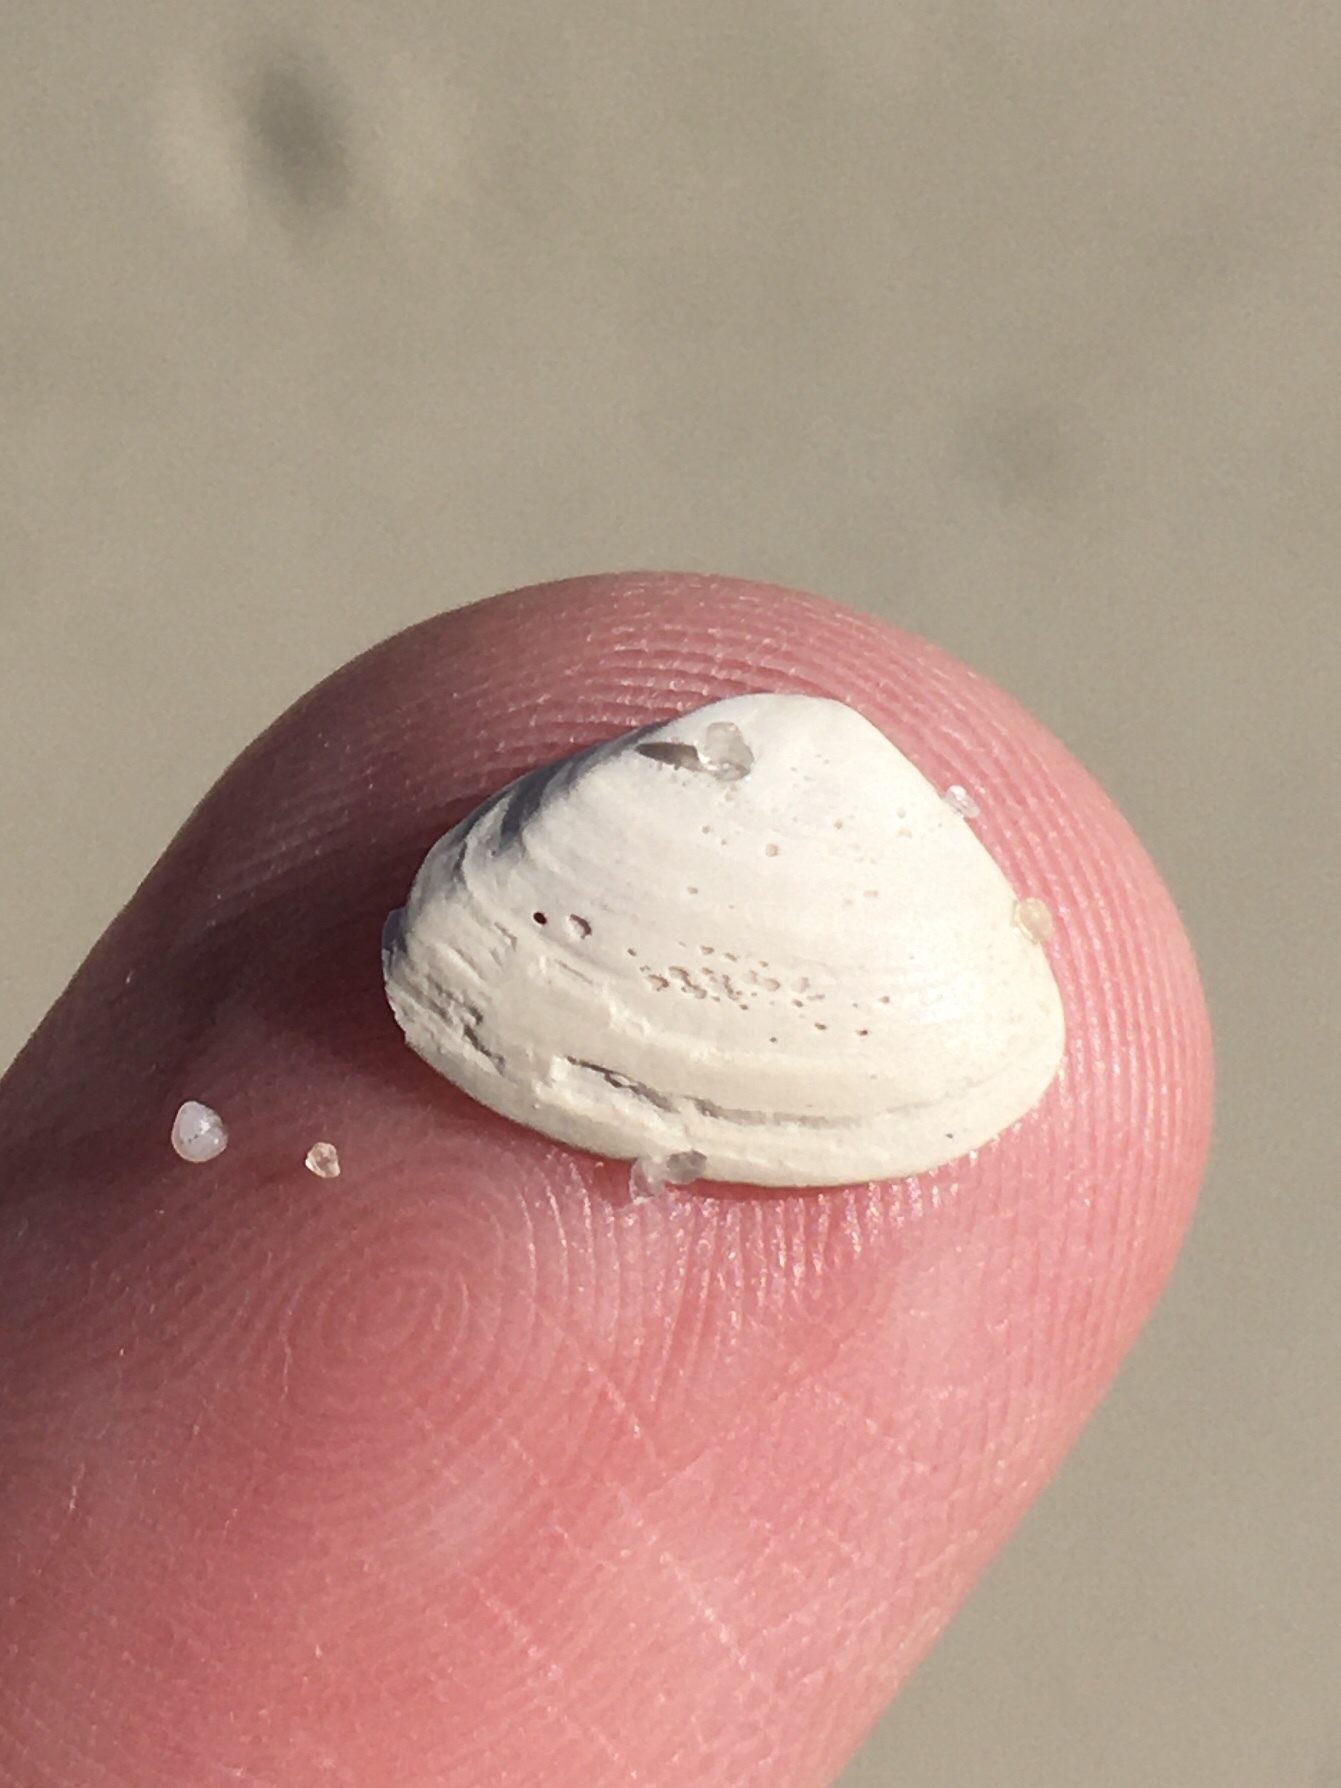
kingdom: Animalia
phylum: Mollusca
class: Bivalvia
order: Venerida
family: Mactridae
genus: Mulinia
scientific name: Mulinia lateralis
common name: Dwarf surfclam
